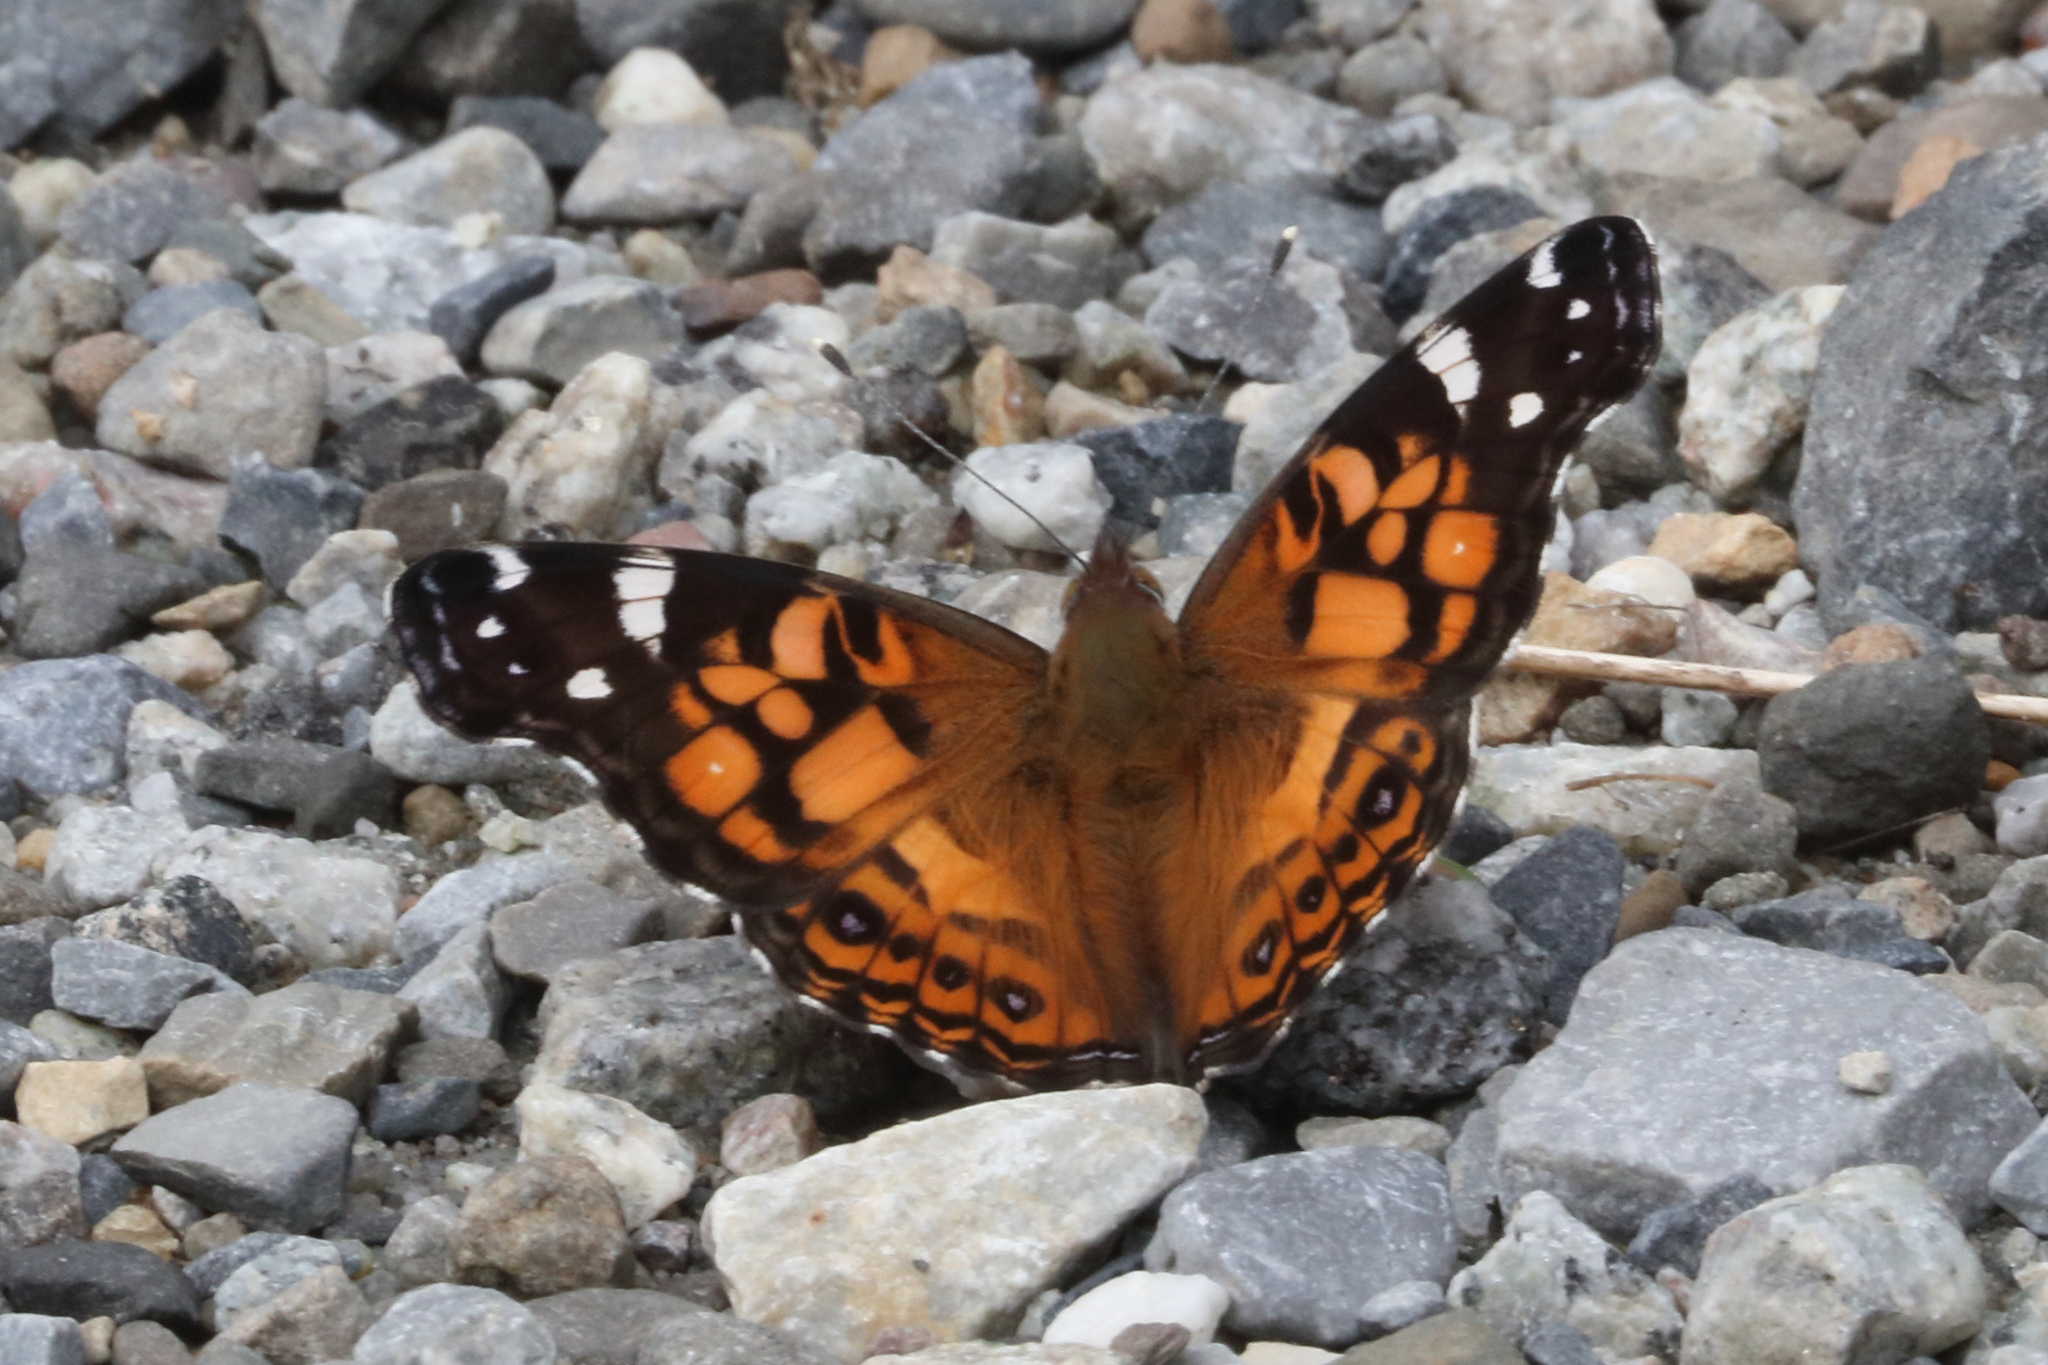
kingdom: Animalia
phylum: Arthropoda
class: Insecta
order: Lepidoptera
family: Nymphalidae
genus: Vanessa
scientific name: Vanessa virginiensis
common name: American lady
